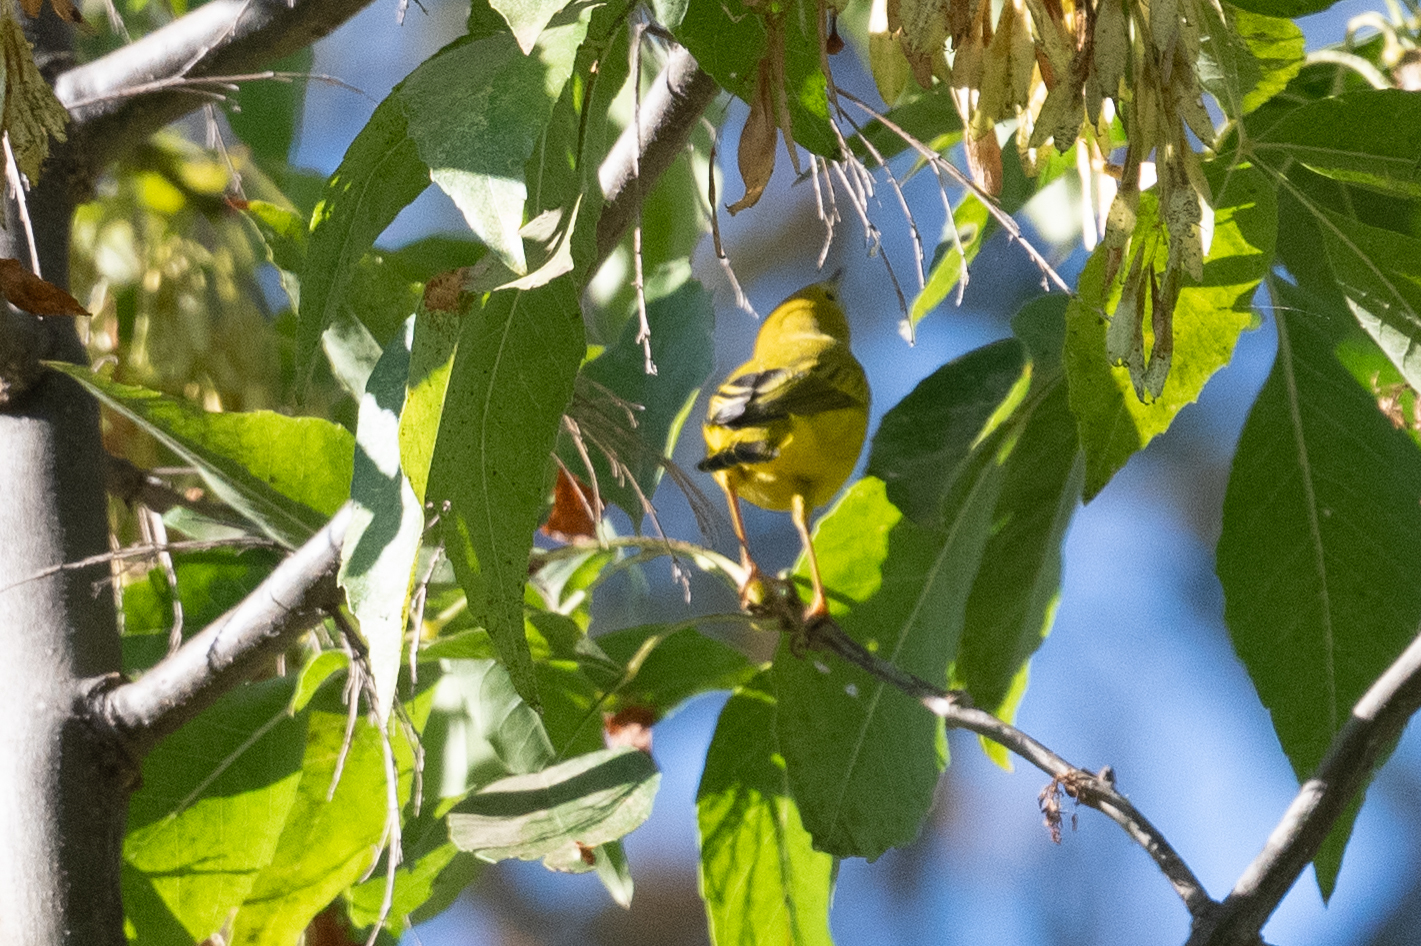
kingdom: Animalia
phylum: Chordata
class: Aves
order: Passeriformes
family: Parulidae
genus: Setophaga
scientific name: Setophaga petechia
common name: Yellow warbler
